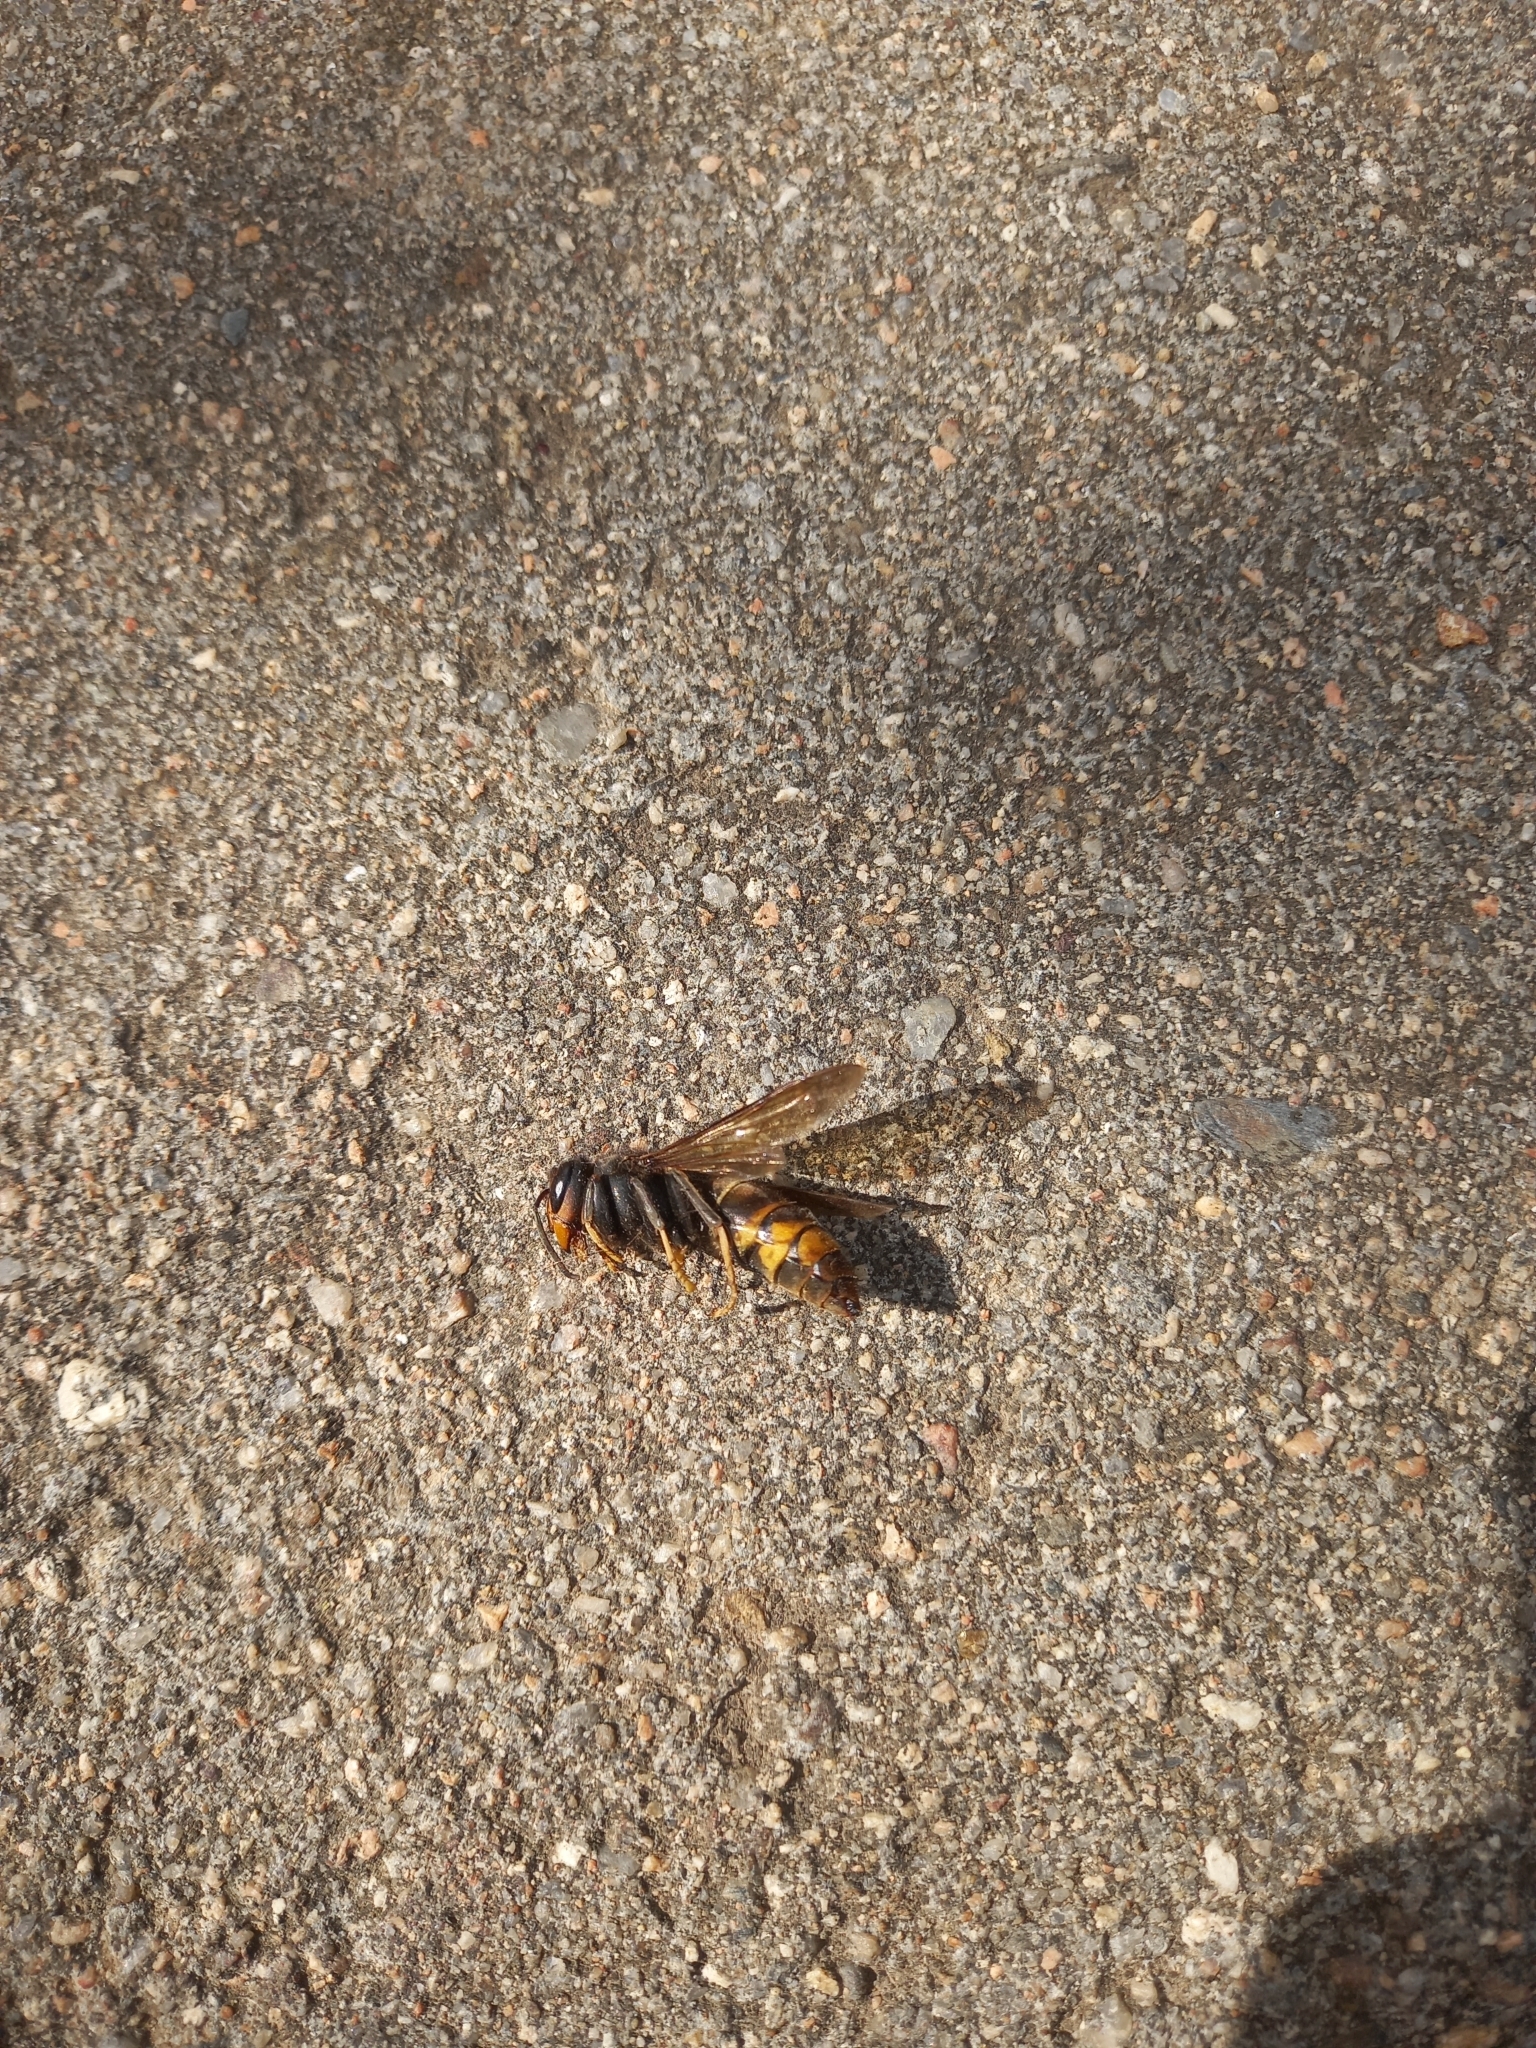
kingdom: Animalia
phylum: Arthropoda
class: Insecta
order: Hymenoptera
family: Vespidae
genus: Vespa
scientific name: Vespa velutina
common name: Asian hornet
